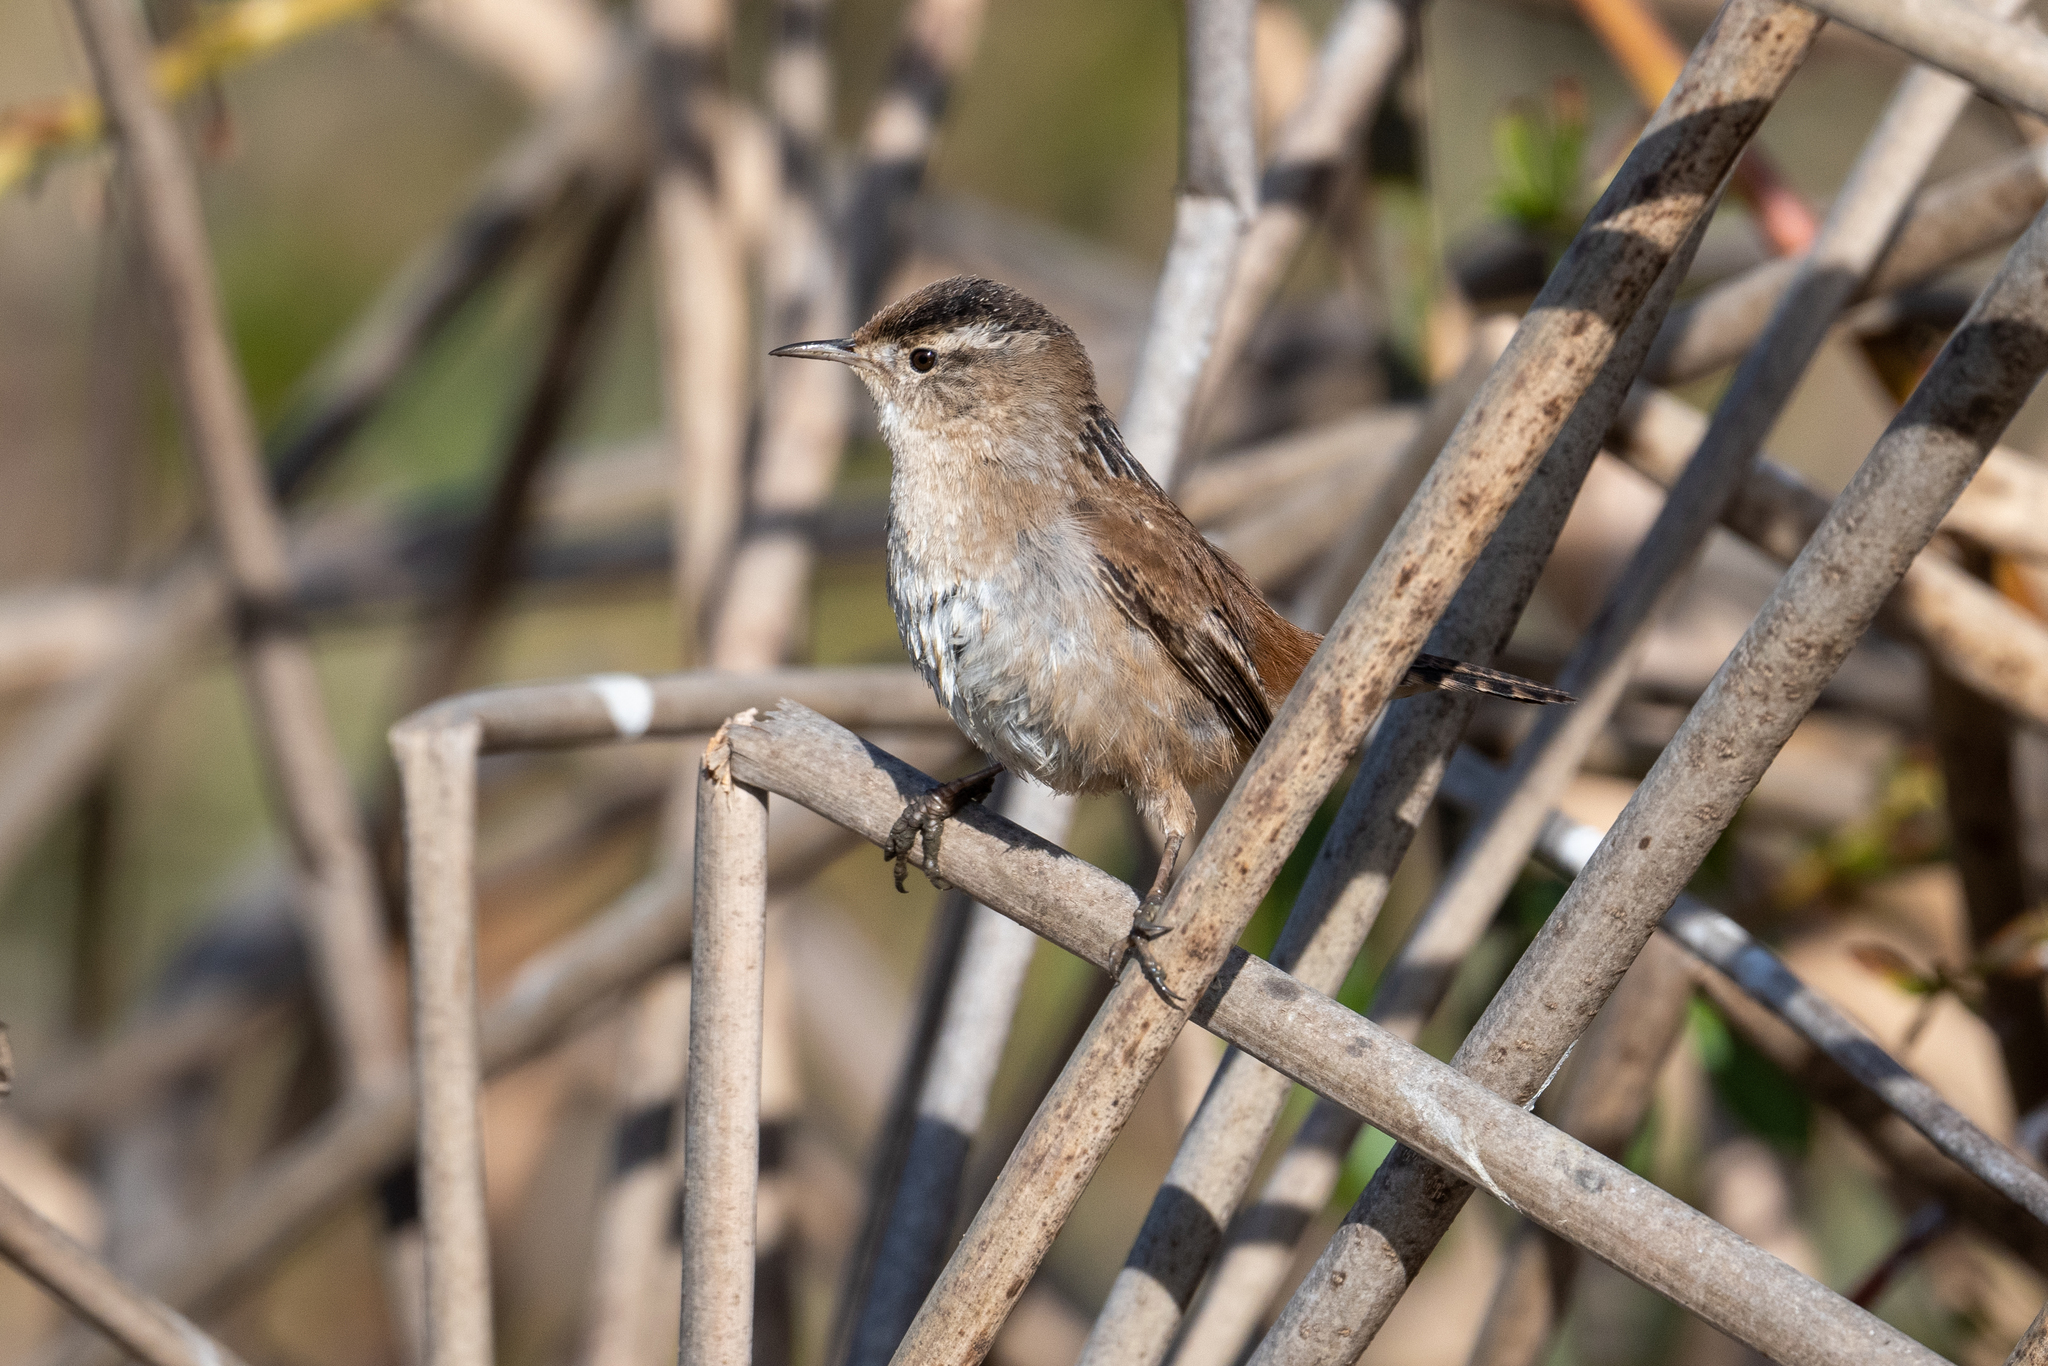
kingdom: Animalia
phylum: Chordata
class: Aves
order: Passeriformes
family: Troglodytidae
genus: Cistothorus
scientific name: Cistothorus palustris
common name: Marsh wren
